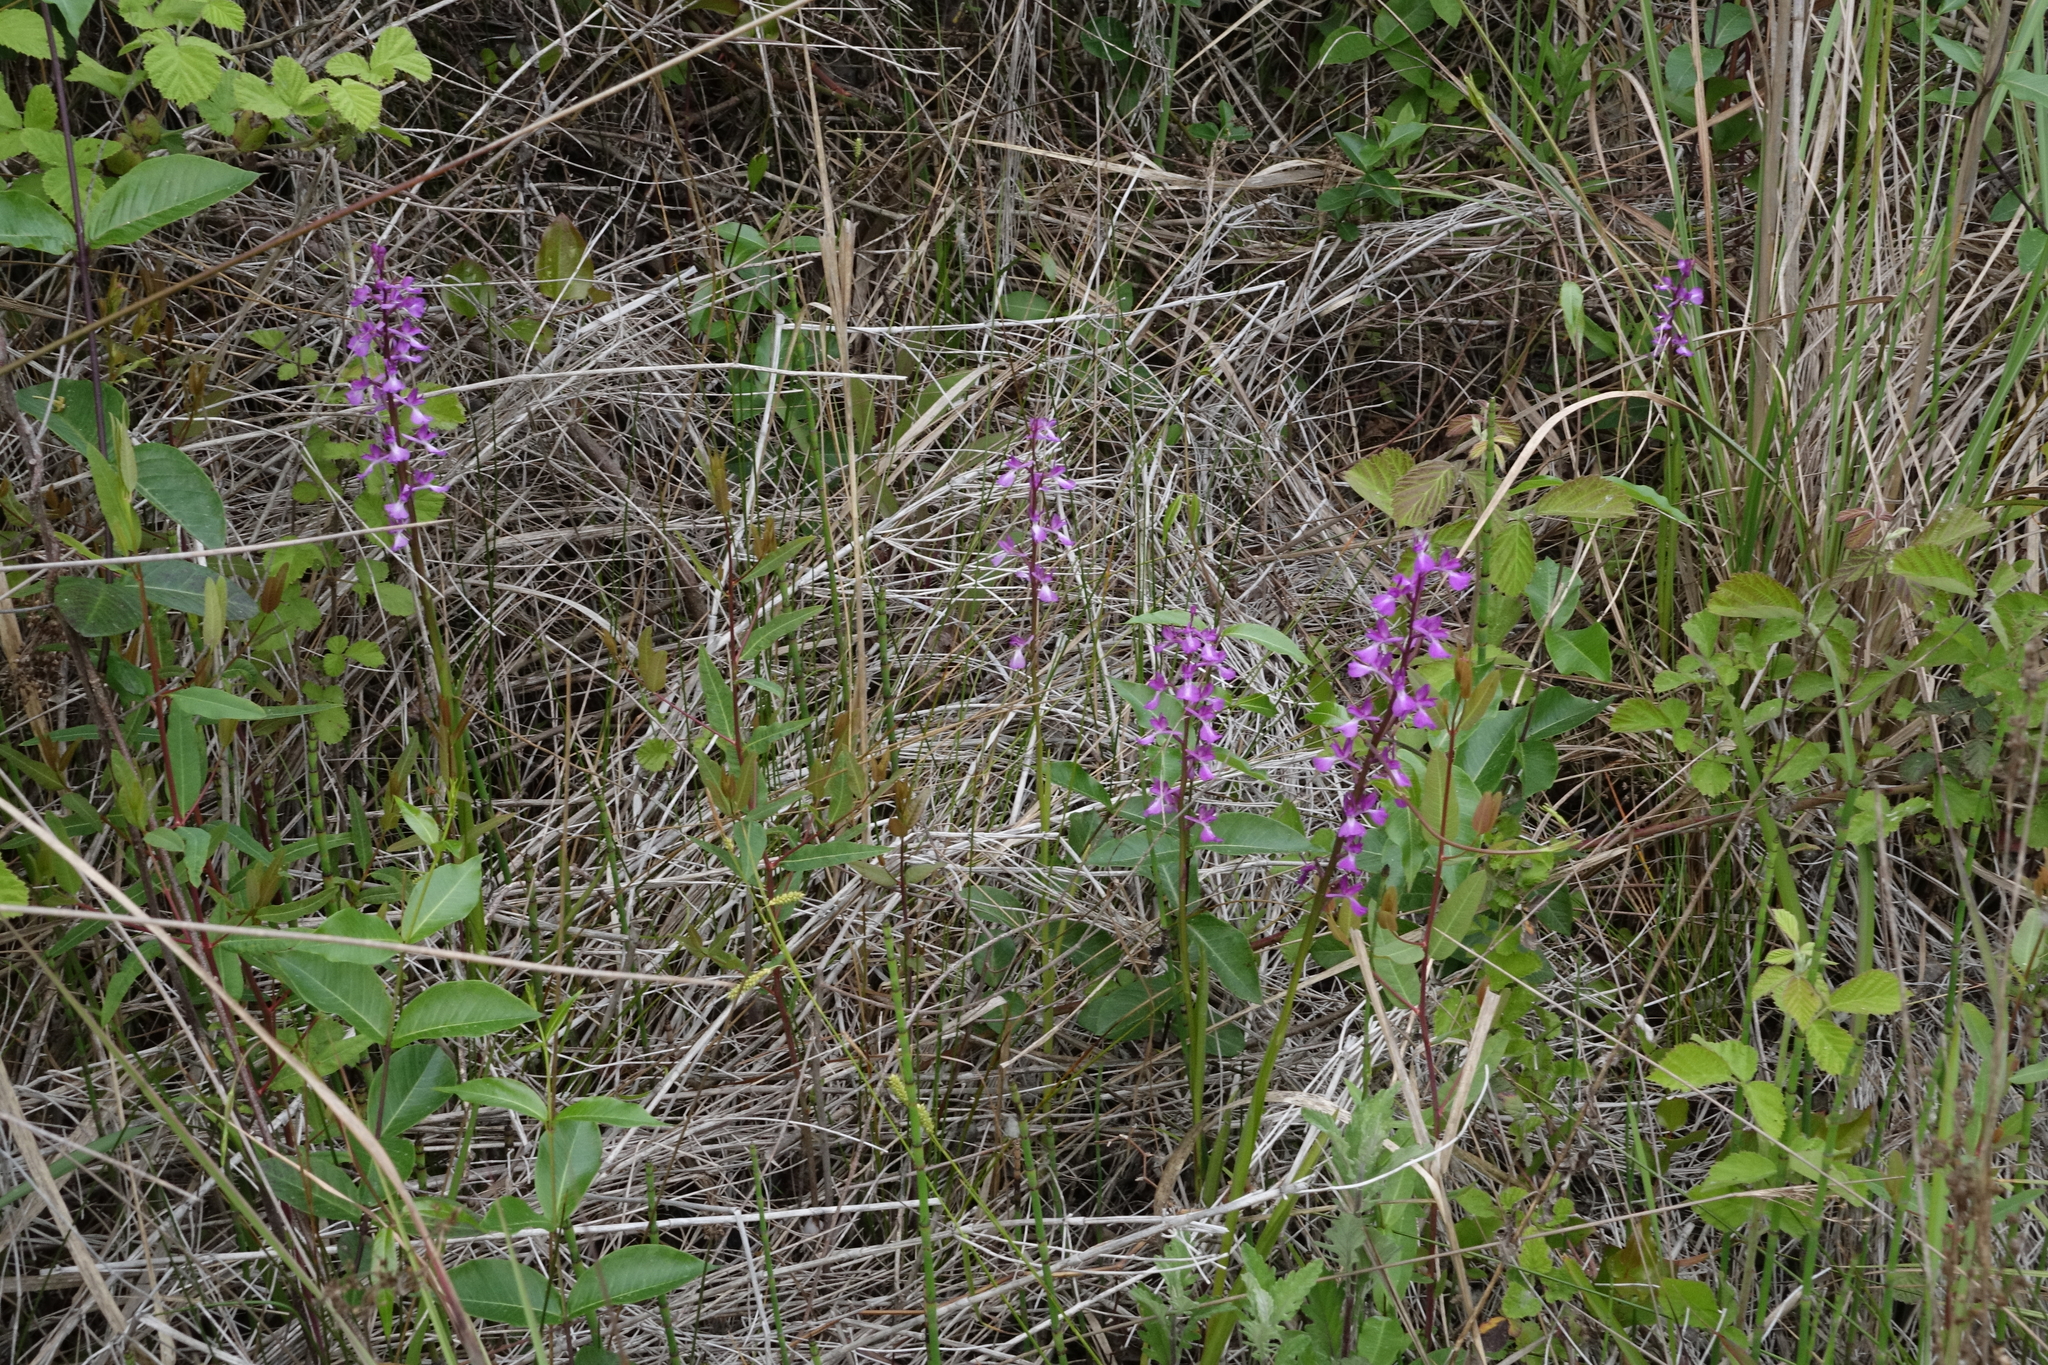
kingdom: Plantae
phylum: Tracheophyta
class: Liliopsida
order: Asparagales
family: Orchidaceae
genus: Anacamptis
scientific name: Anacamptis palustris
